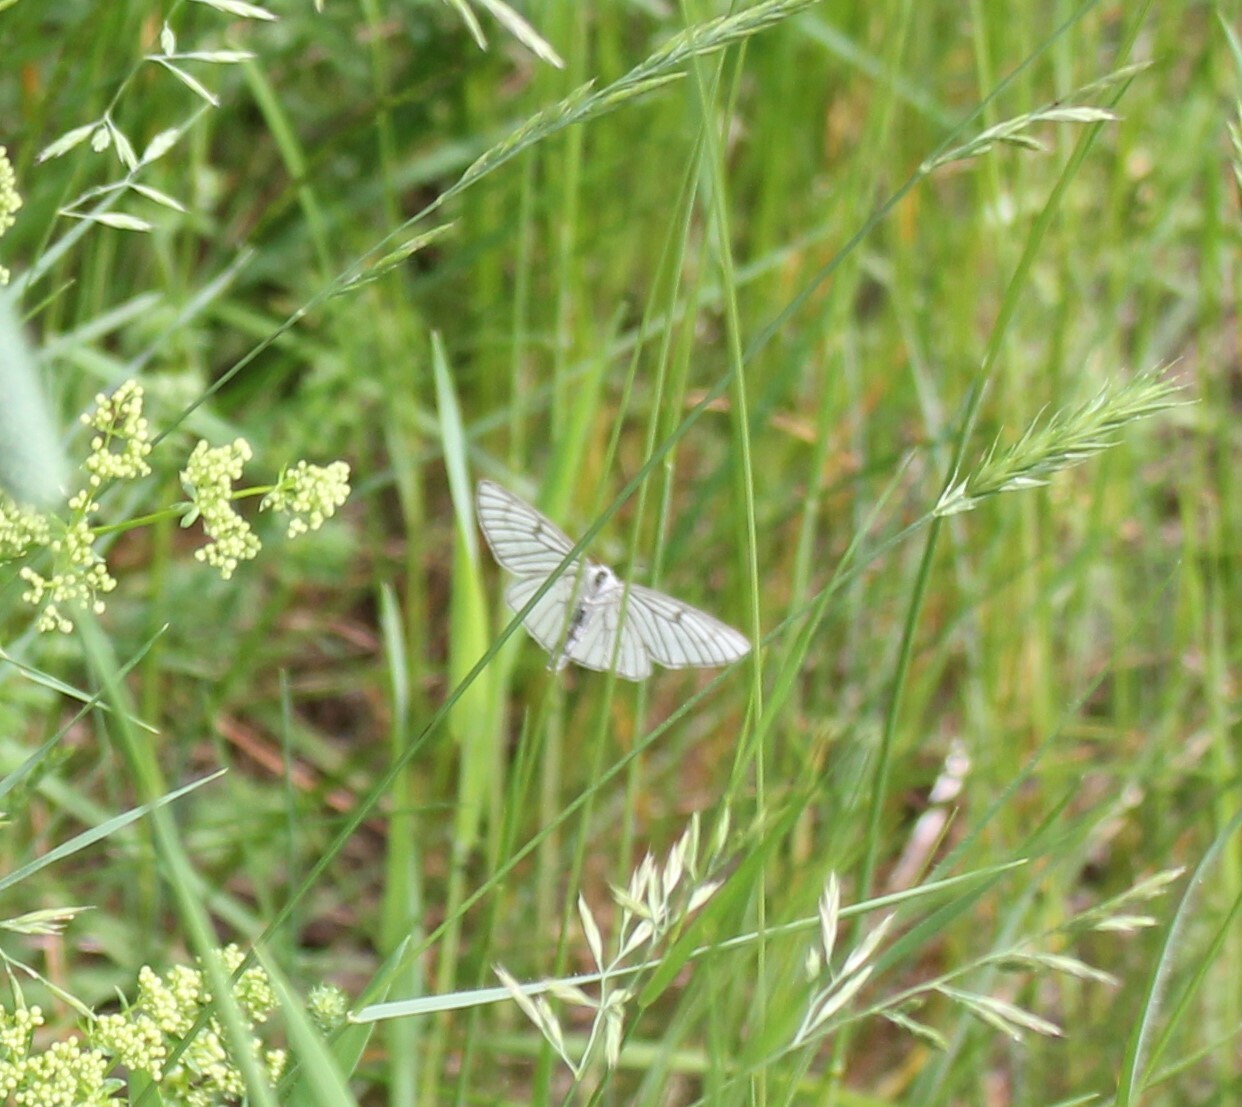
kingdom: Animalia
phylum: Arthropoda
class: Insecta
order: Lepidoptera
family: Geometridae
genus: Siona
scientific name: Siona lineata
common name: Black-veined moth
